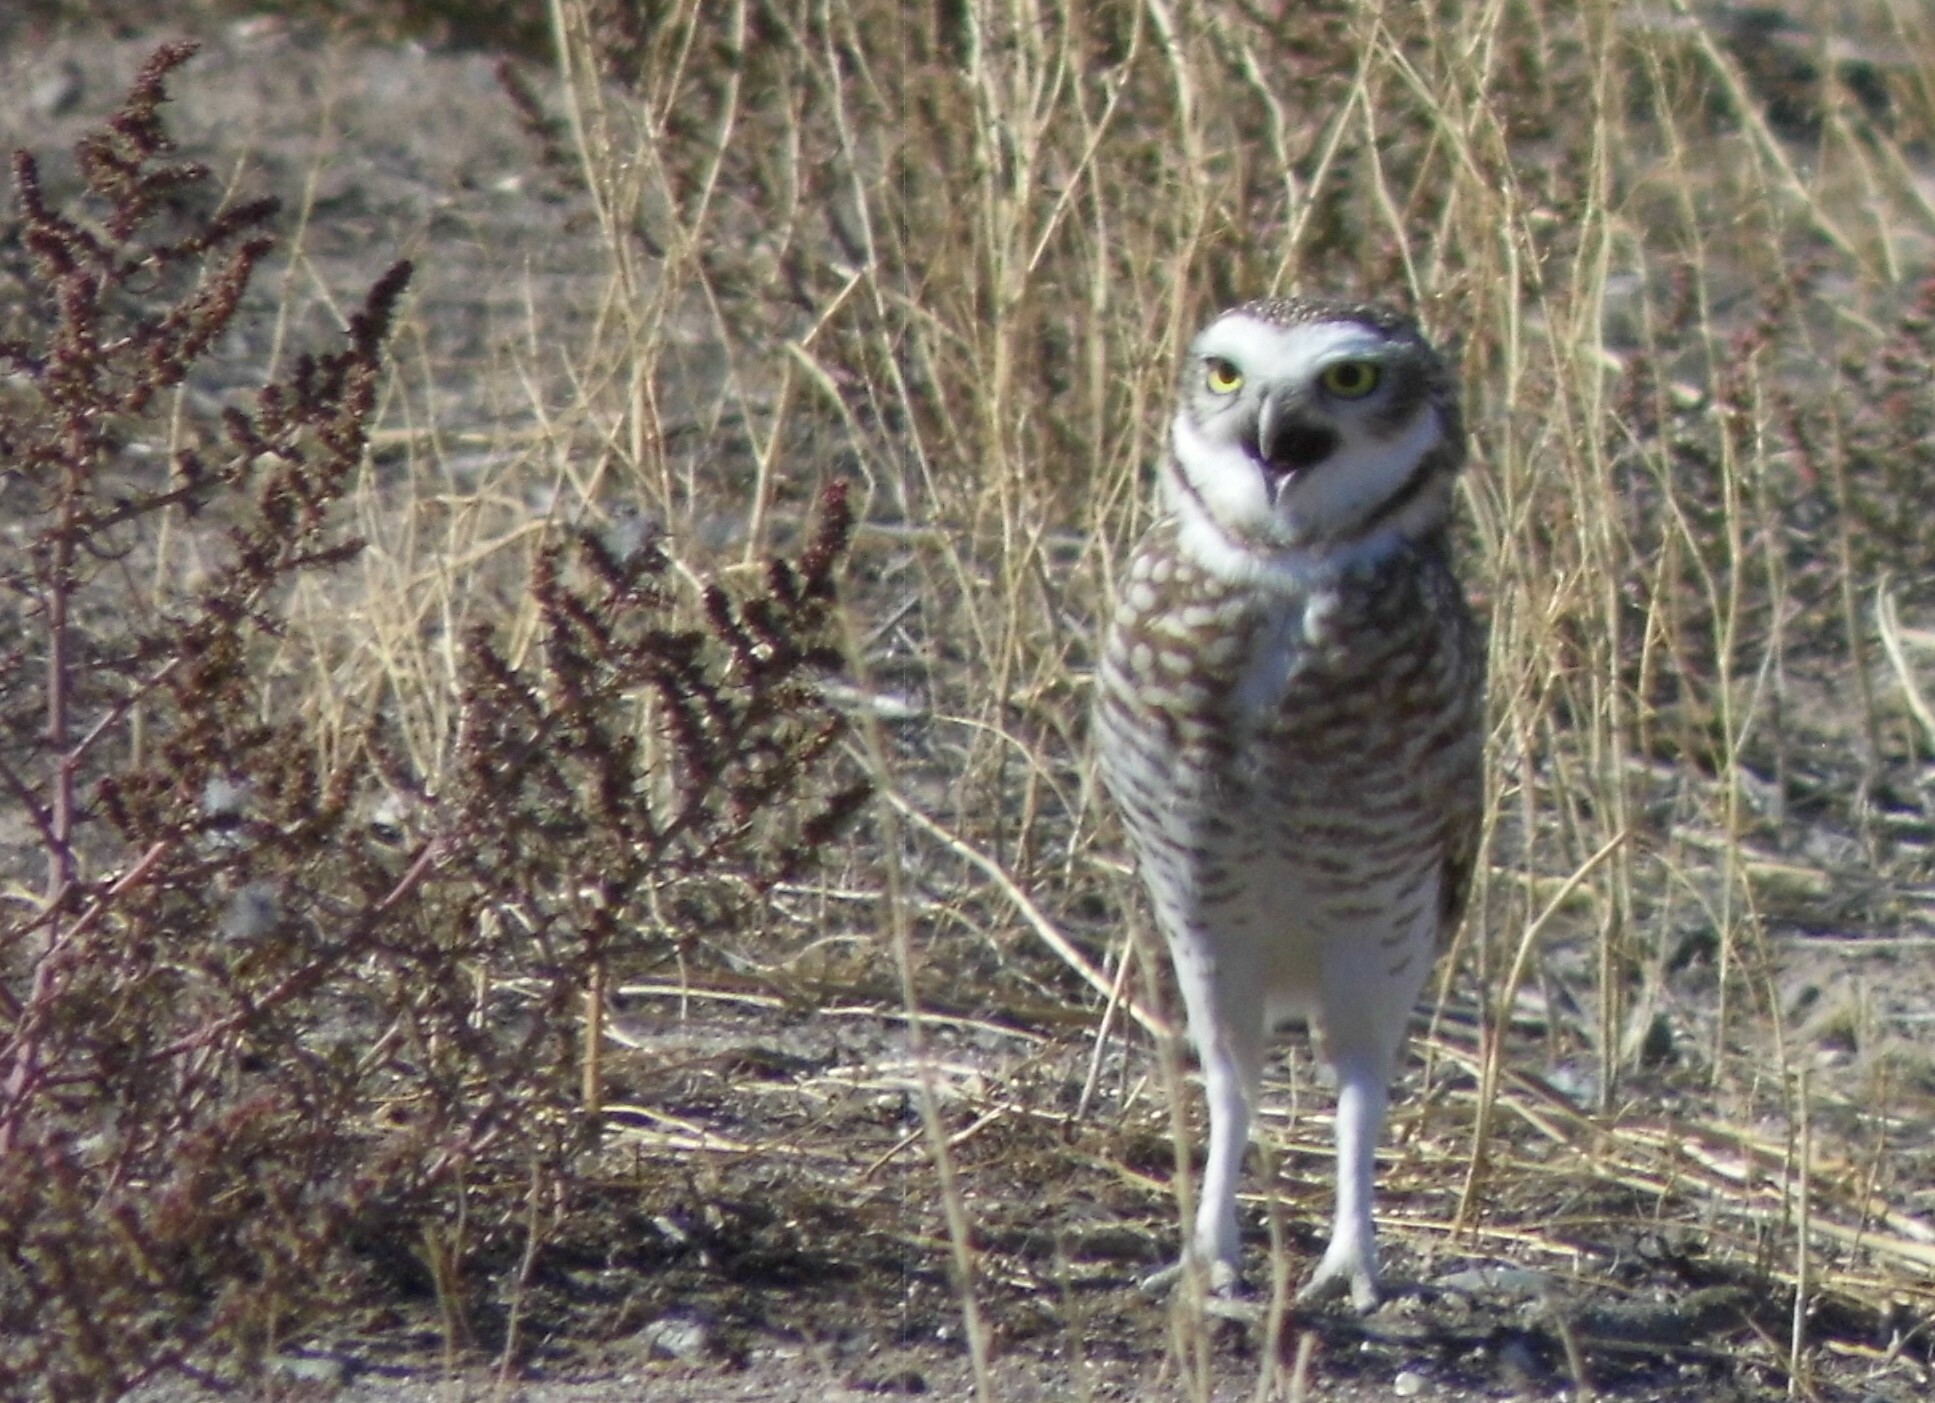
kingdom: Animalia
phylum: Chordata
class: Aves
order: Strigiformes
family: Strigidae
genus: Athene
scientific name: Athene cunicularia
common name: Burrowing owl
